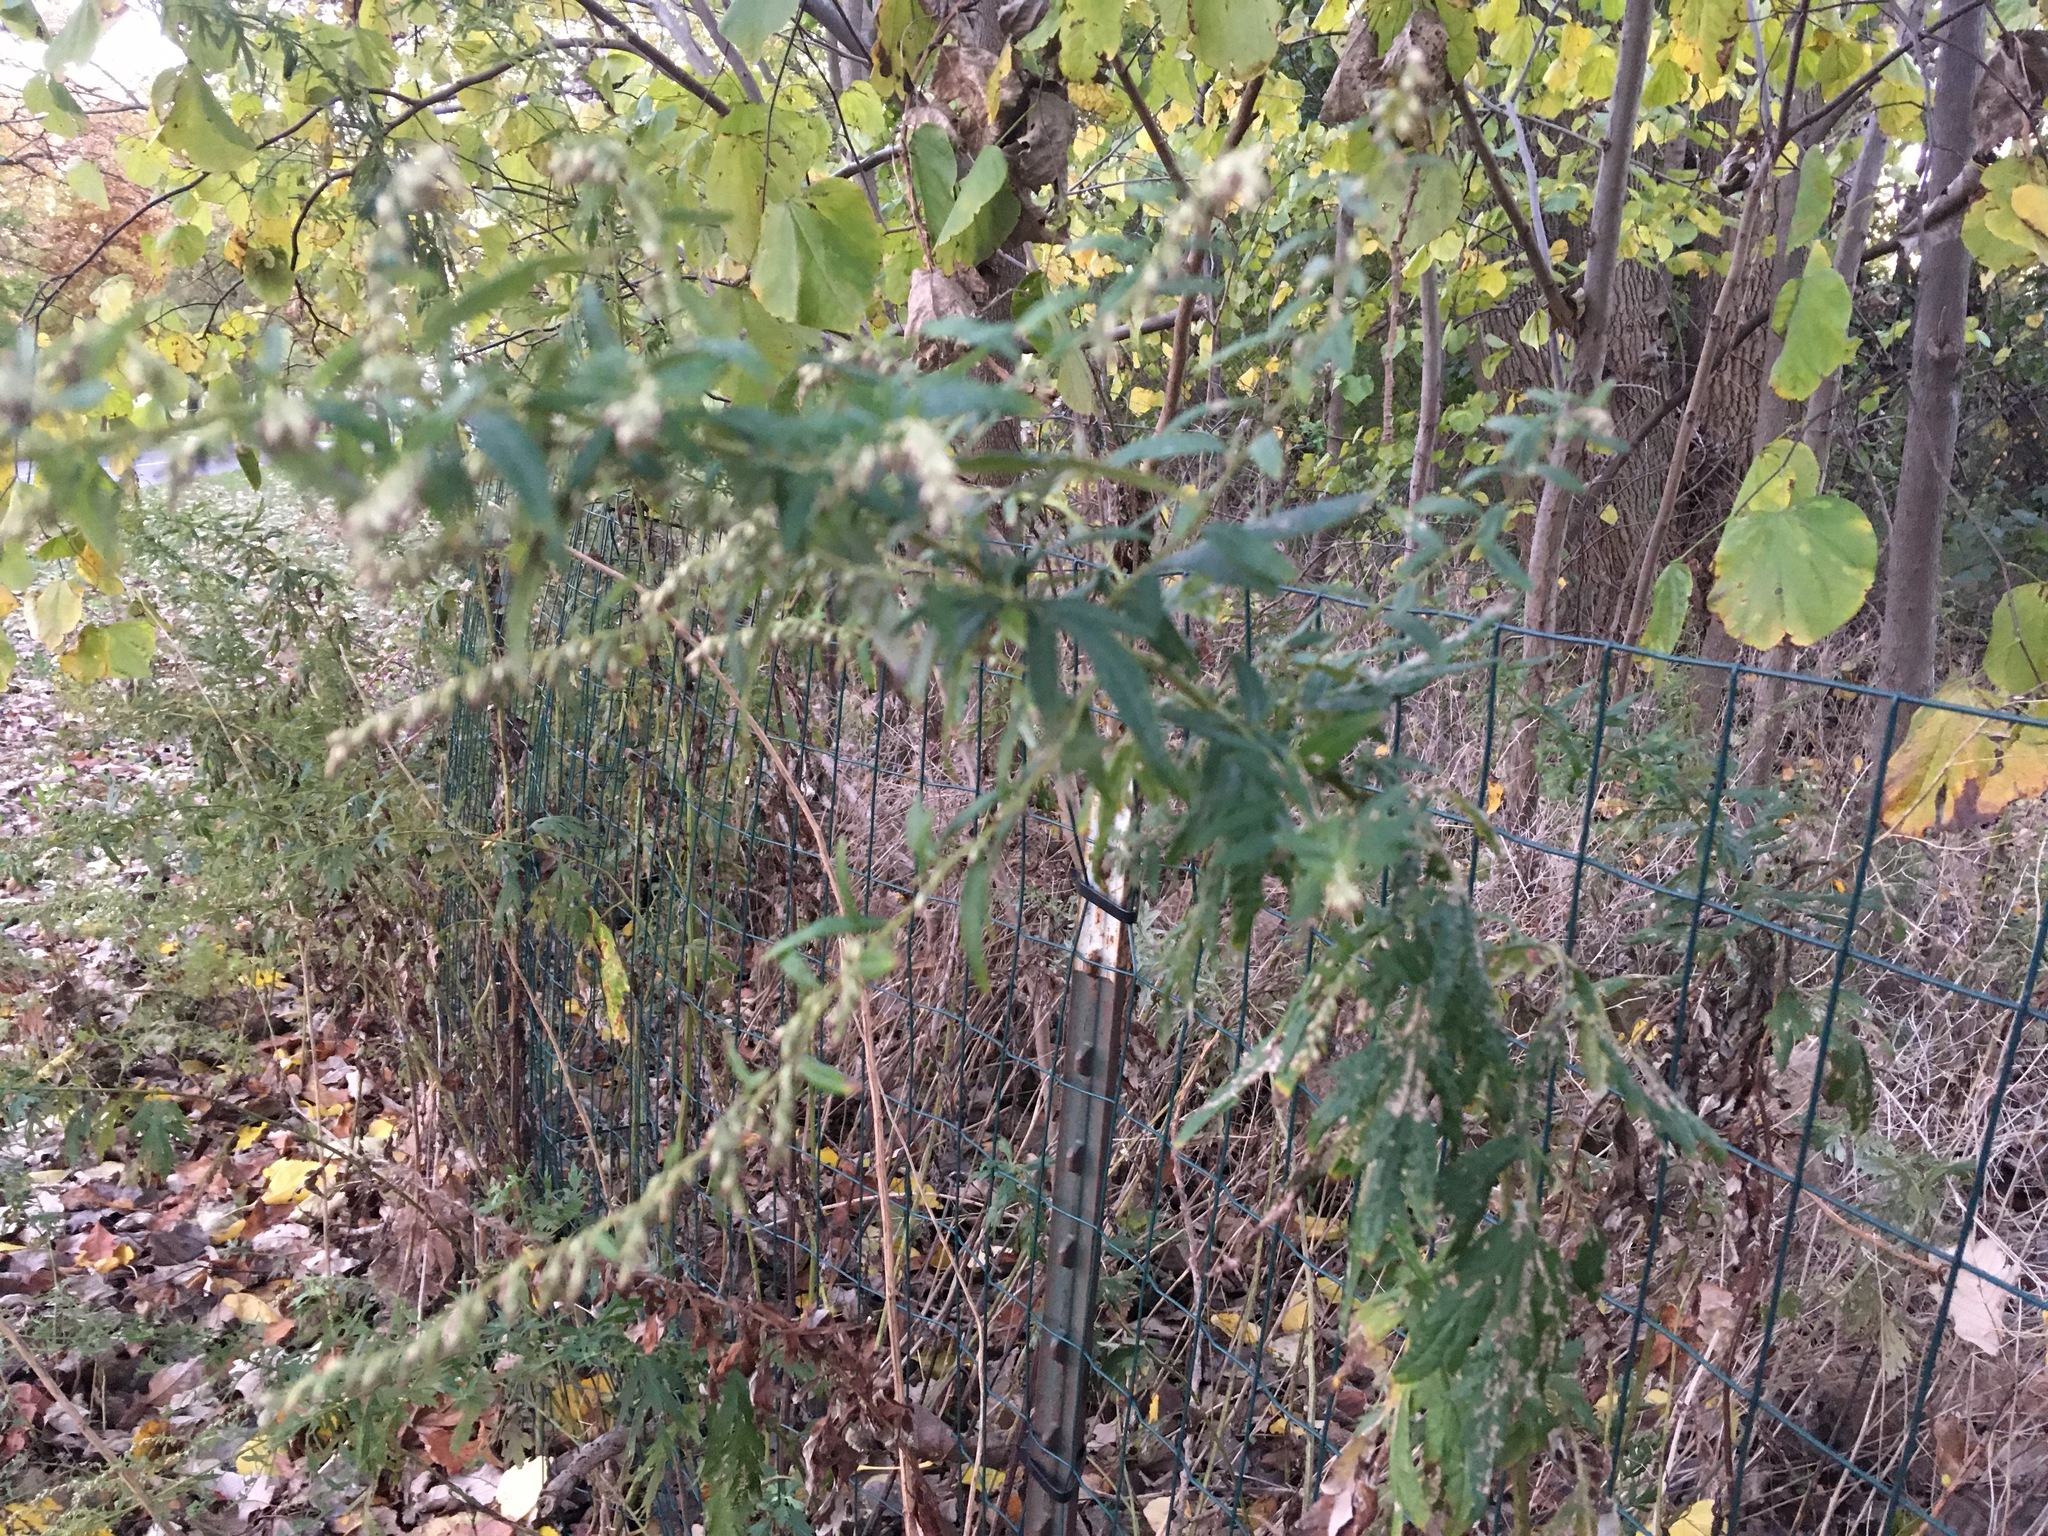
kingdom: Plantae
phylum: Tracheophyta
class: Magnoliopsida
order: Asterales
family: Asteraceae
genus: Artemisia
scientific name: Artemisia vulgaris
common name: Mugwort
